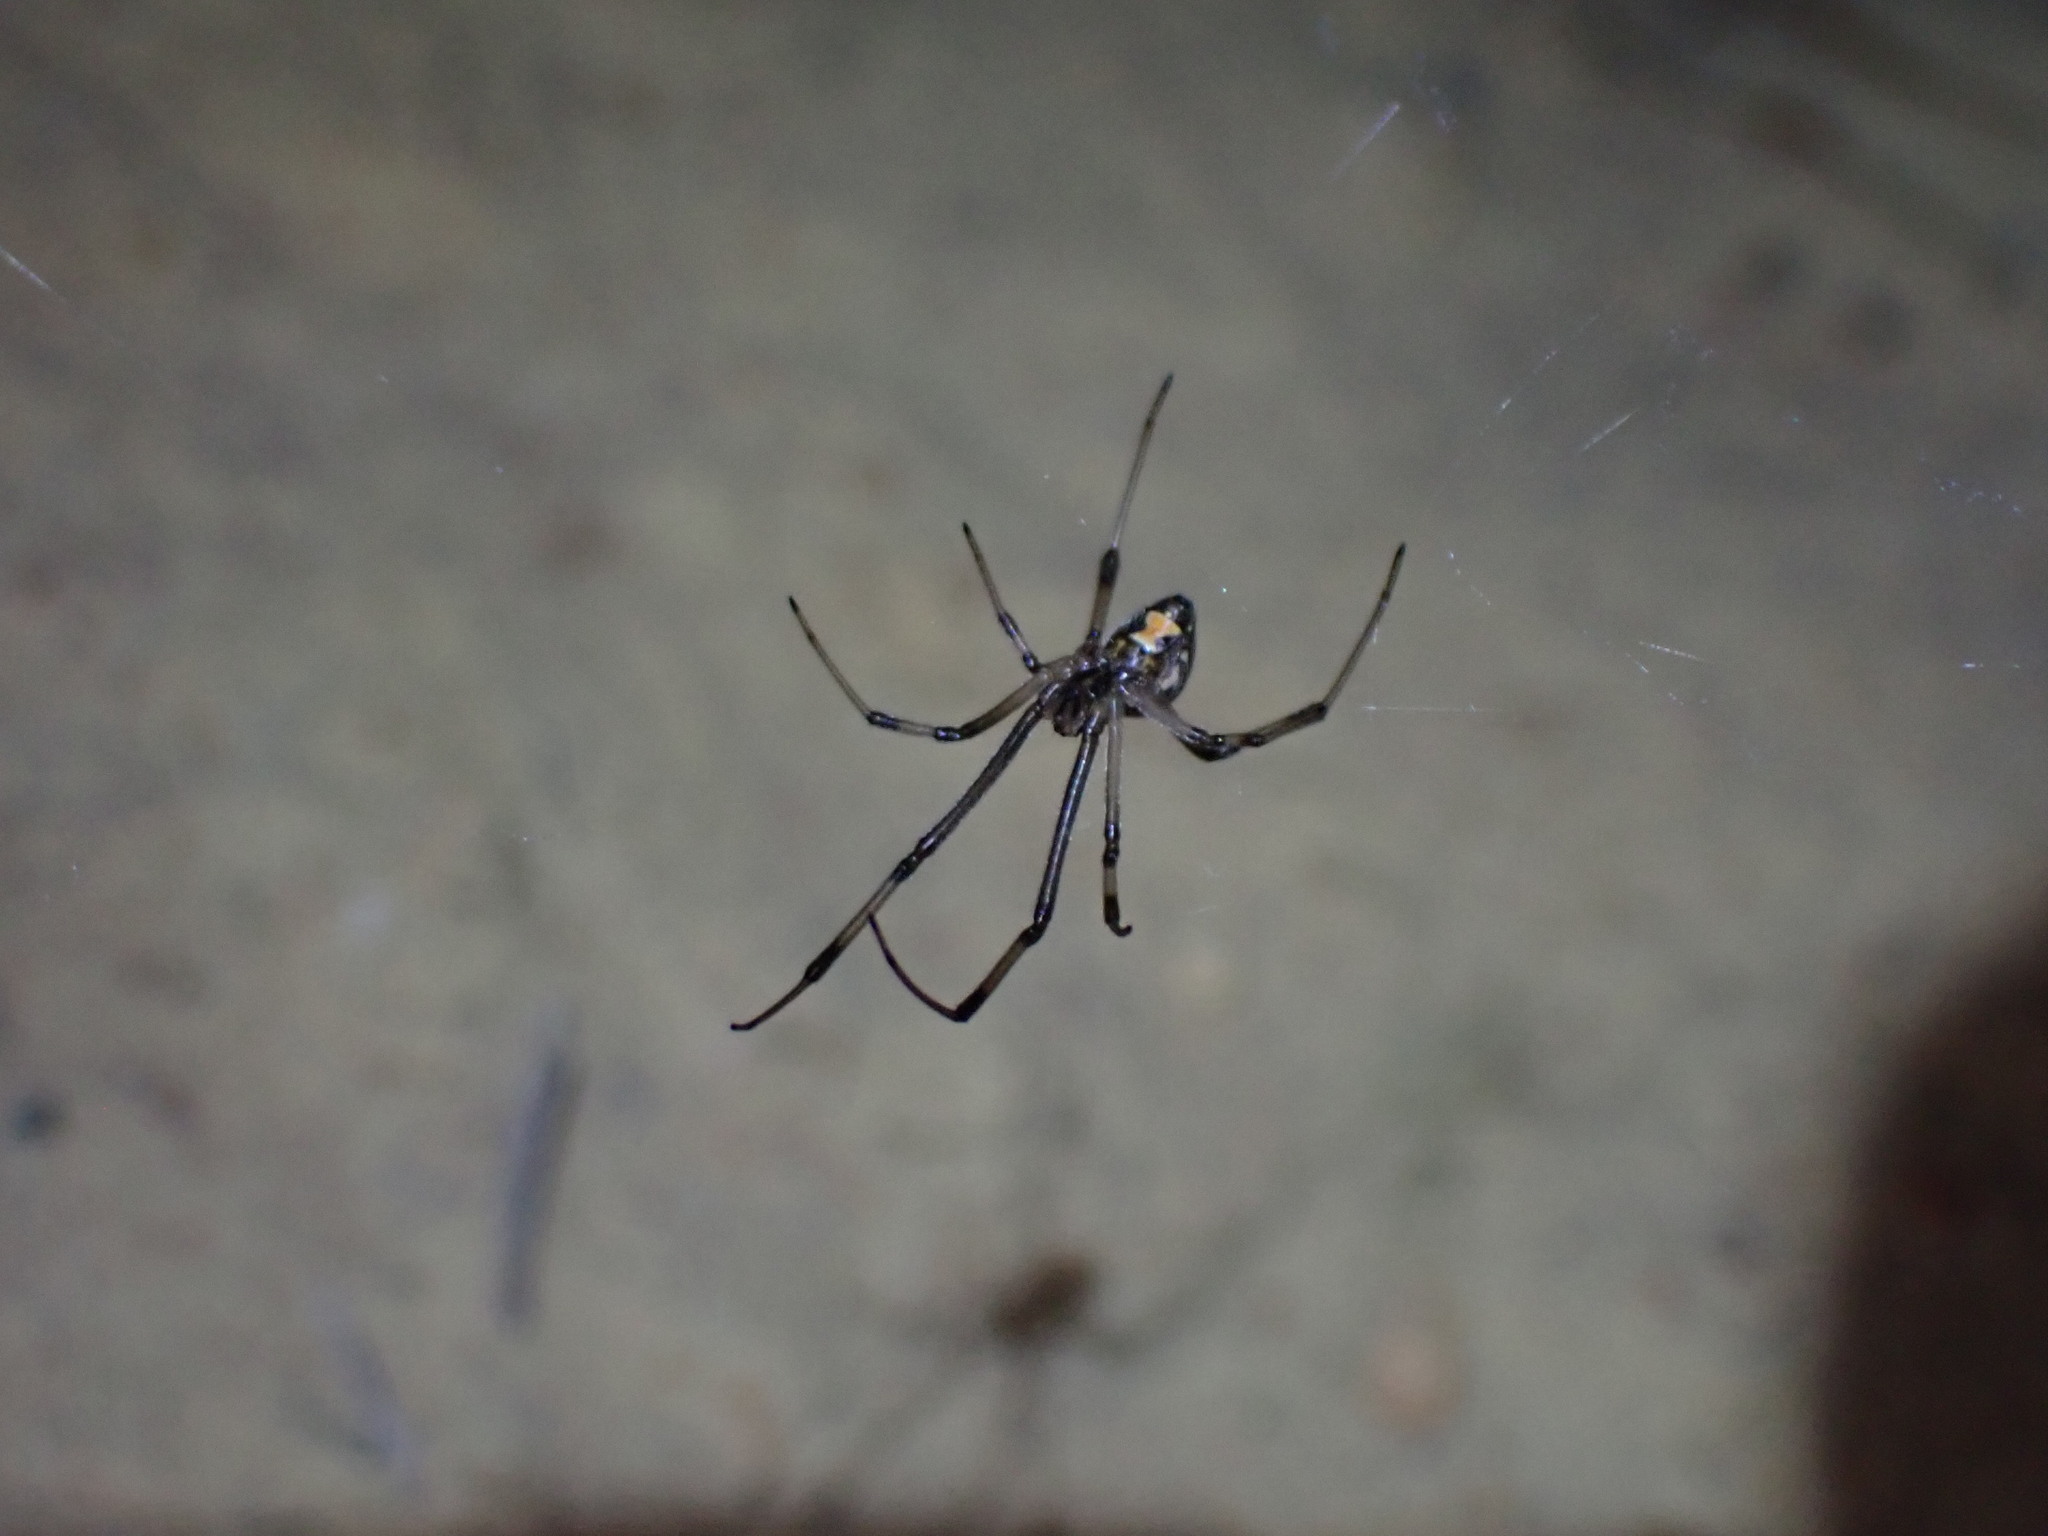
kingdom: Animalia
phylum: Arthropoda
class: Arachnida
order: Araneae
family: Theridiidae
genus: Latrodectus
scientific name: Latrodectus geometricus
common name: Brown widow spider
